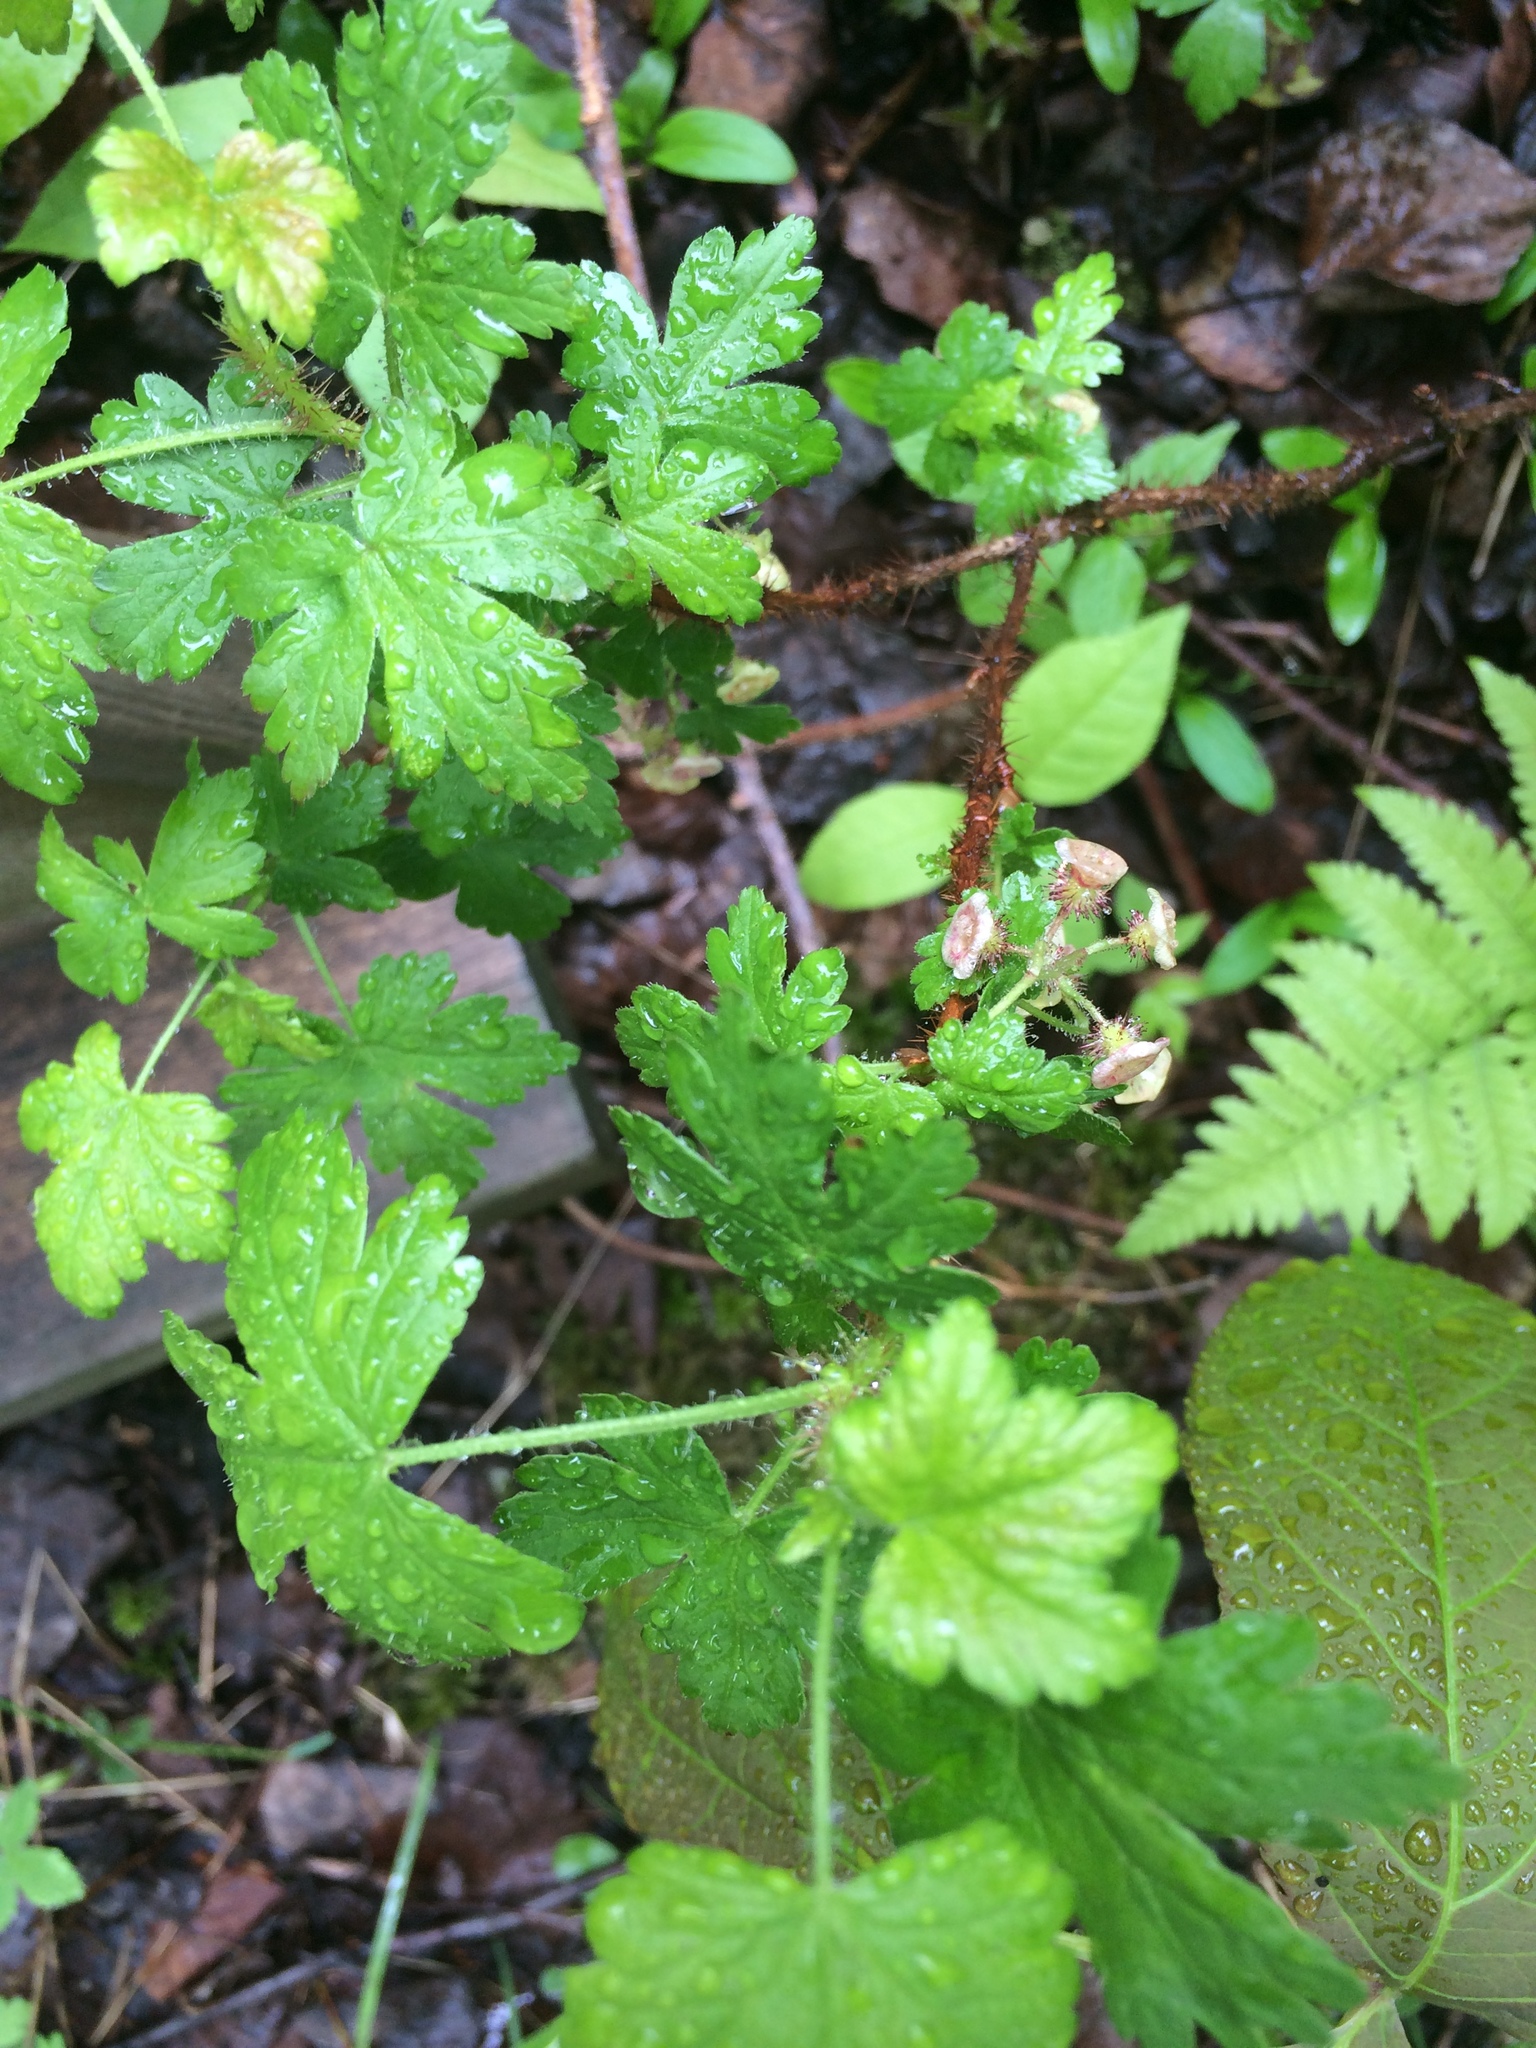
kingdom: Plantae
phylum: Tracheophyta
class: Magnoliopsida
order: Saxifragales
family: Grossulariaceae
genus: Ribes
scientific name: Ribes lacustre
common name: Black gooseberry
